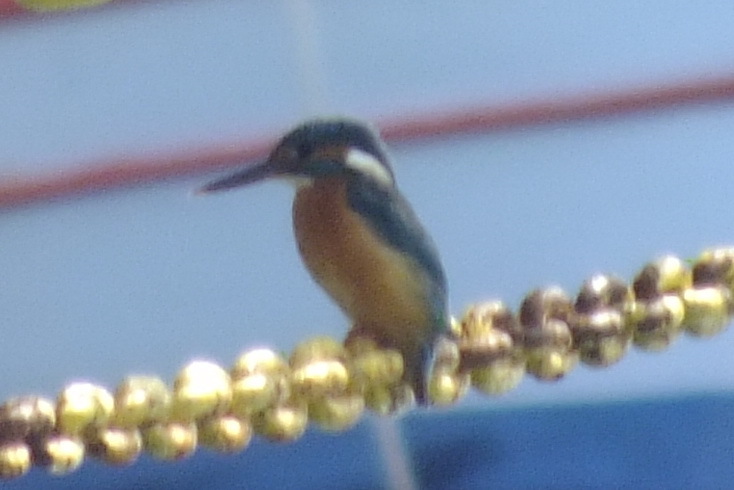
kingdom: Animalia
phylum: Chordata
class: Aves
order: Coraciiformes
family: Alcedinidae
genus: Alcedo
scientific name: Alcedo atthis
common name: Common kingfisher
